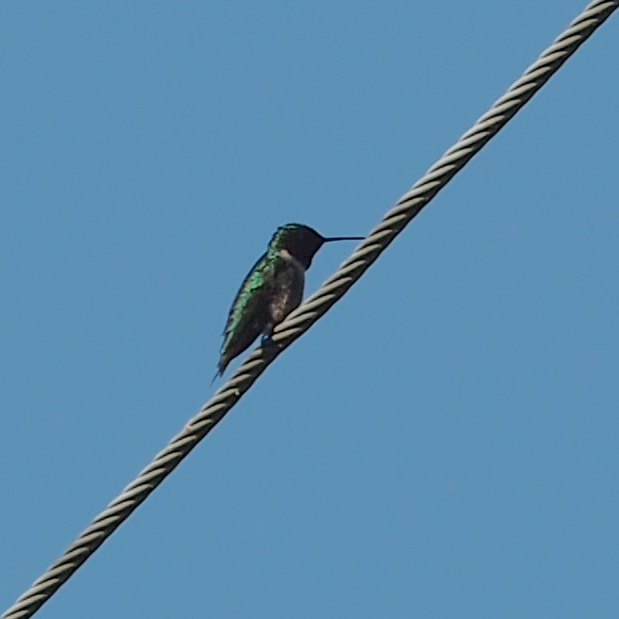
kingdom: Animalia
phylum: Chordata
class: Aves
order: Apodiformes
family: Trochilidae
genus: Archilochus
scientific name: Archilochus colubris
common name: Ruby-throated hummingbird
